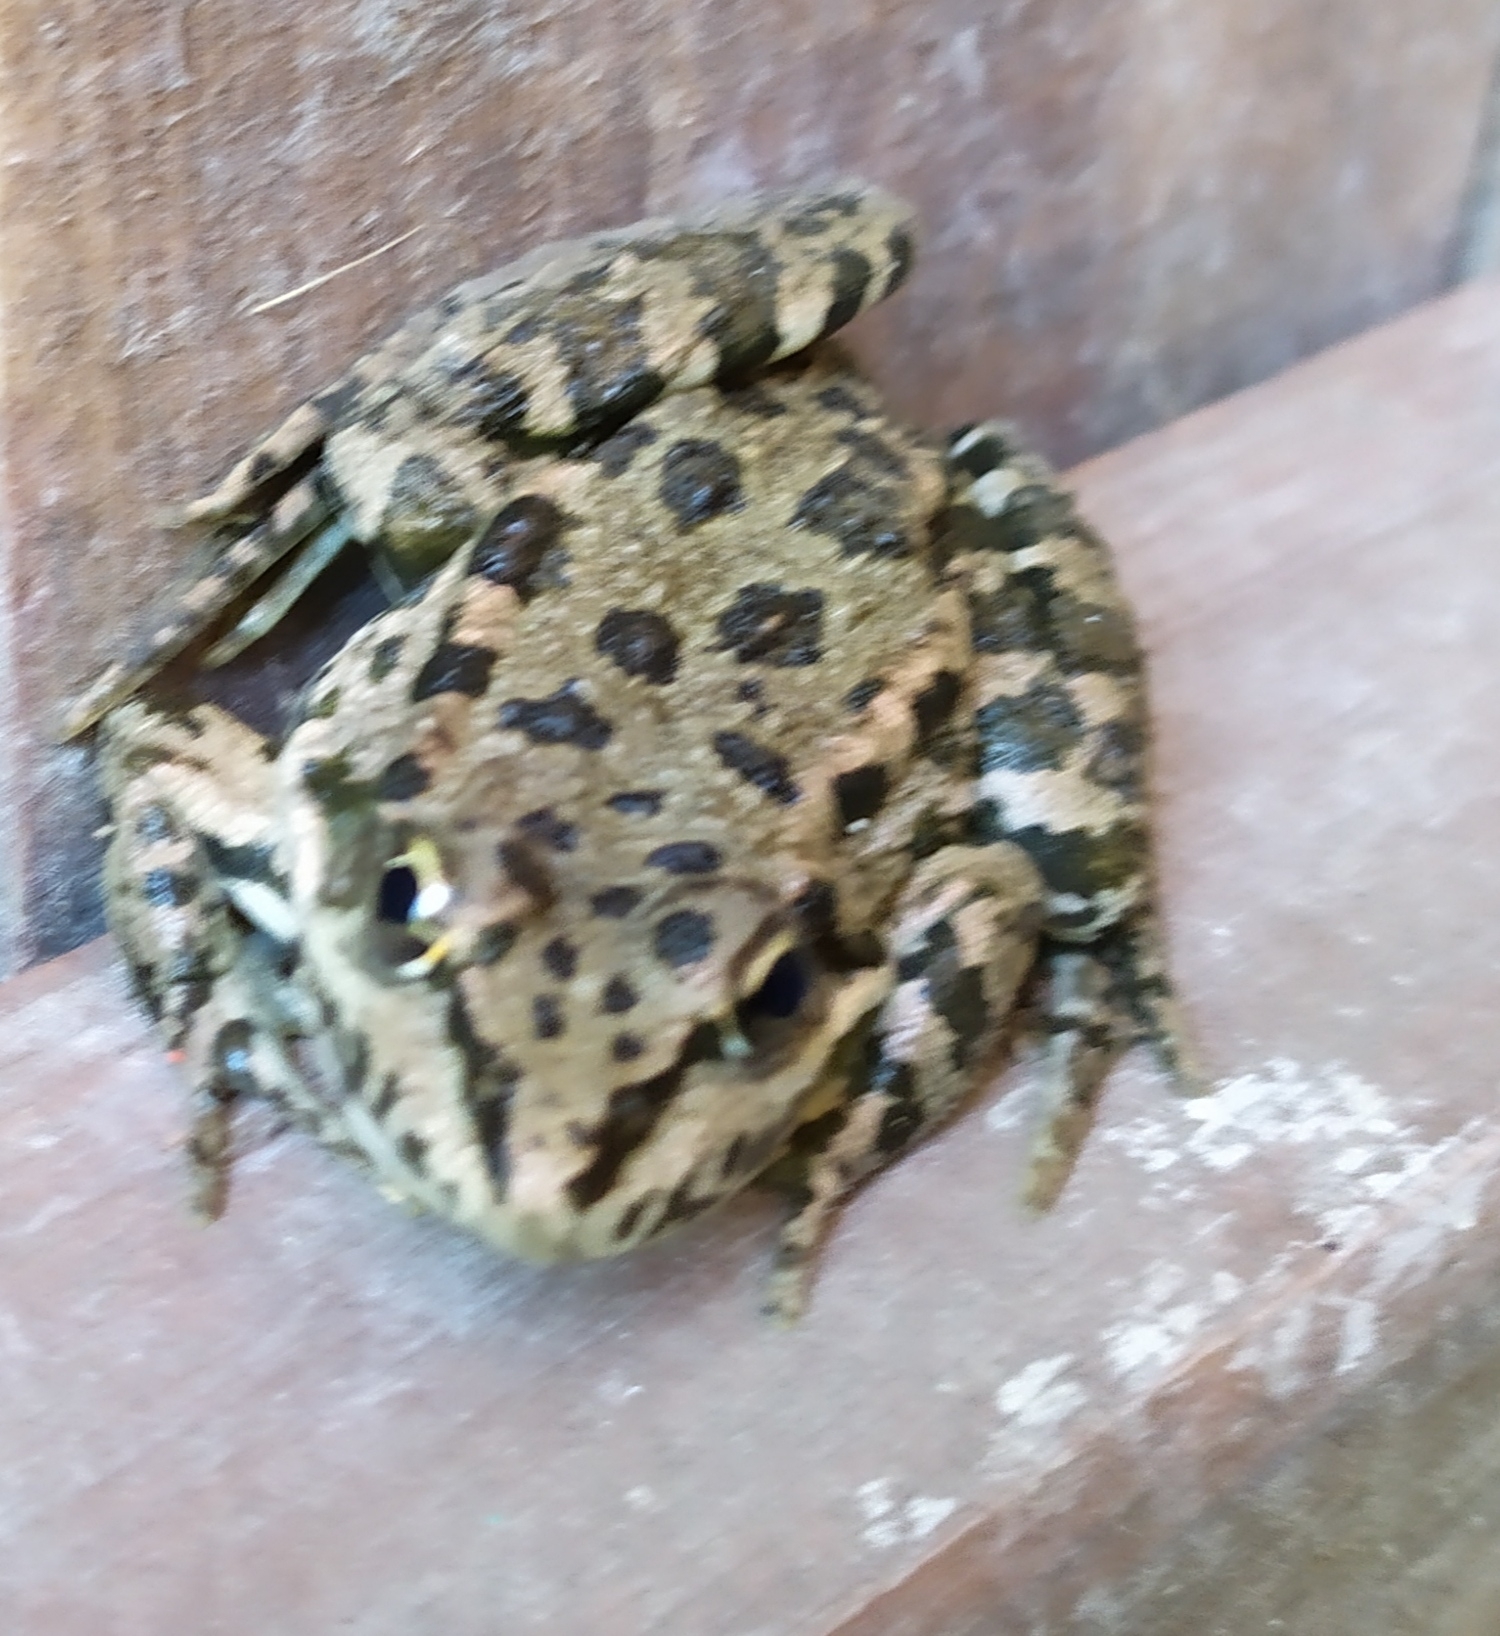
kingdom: Animalia
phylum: Chordata
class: Amphibia
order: Anura
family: Ranidae
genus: Pelophylax
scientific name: Pelophylax ridibundus
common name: Marsh frog
